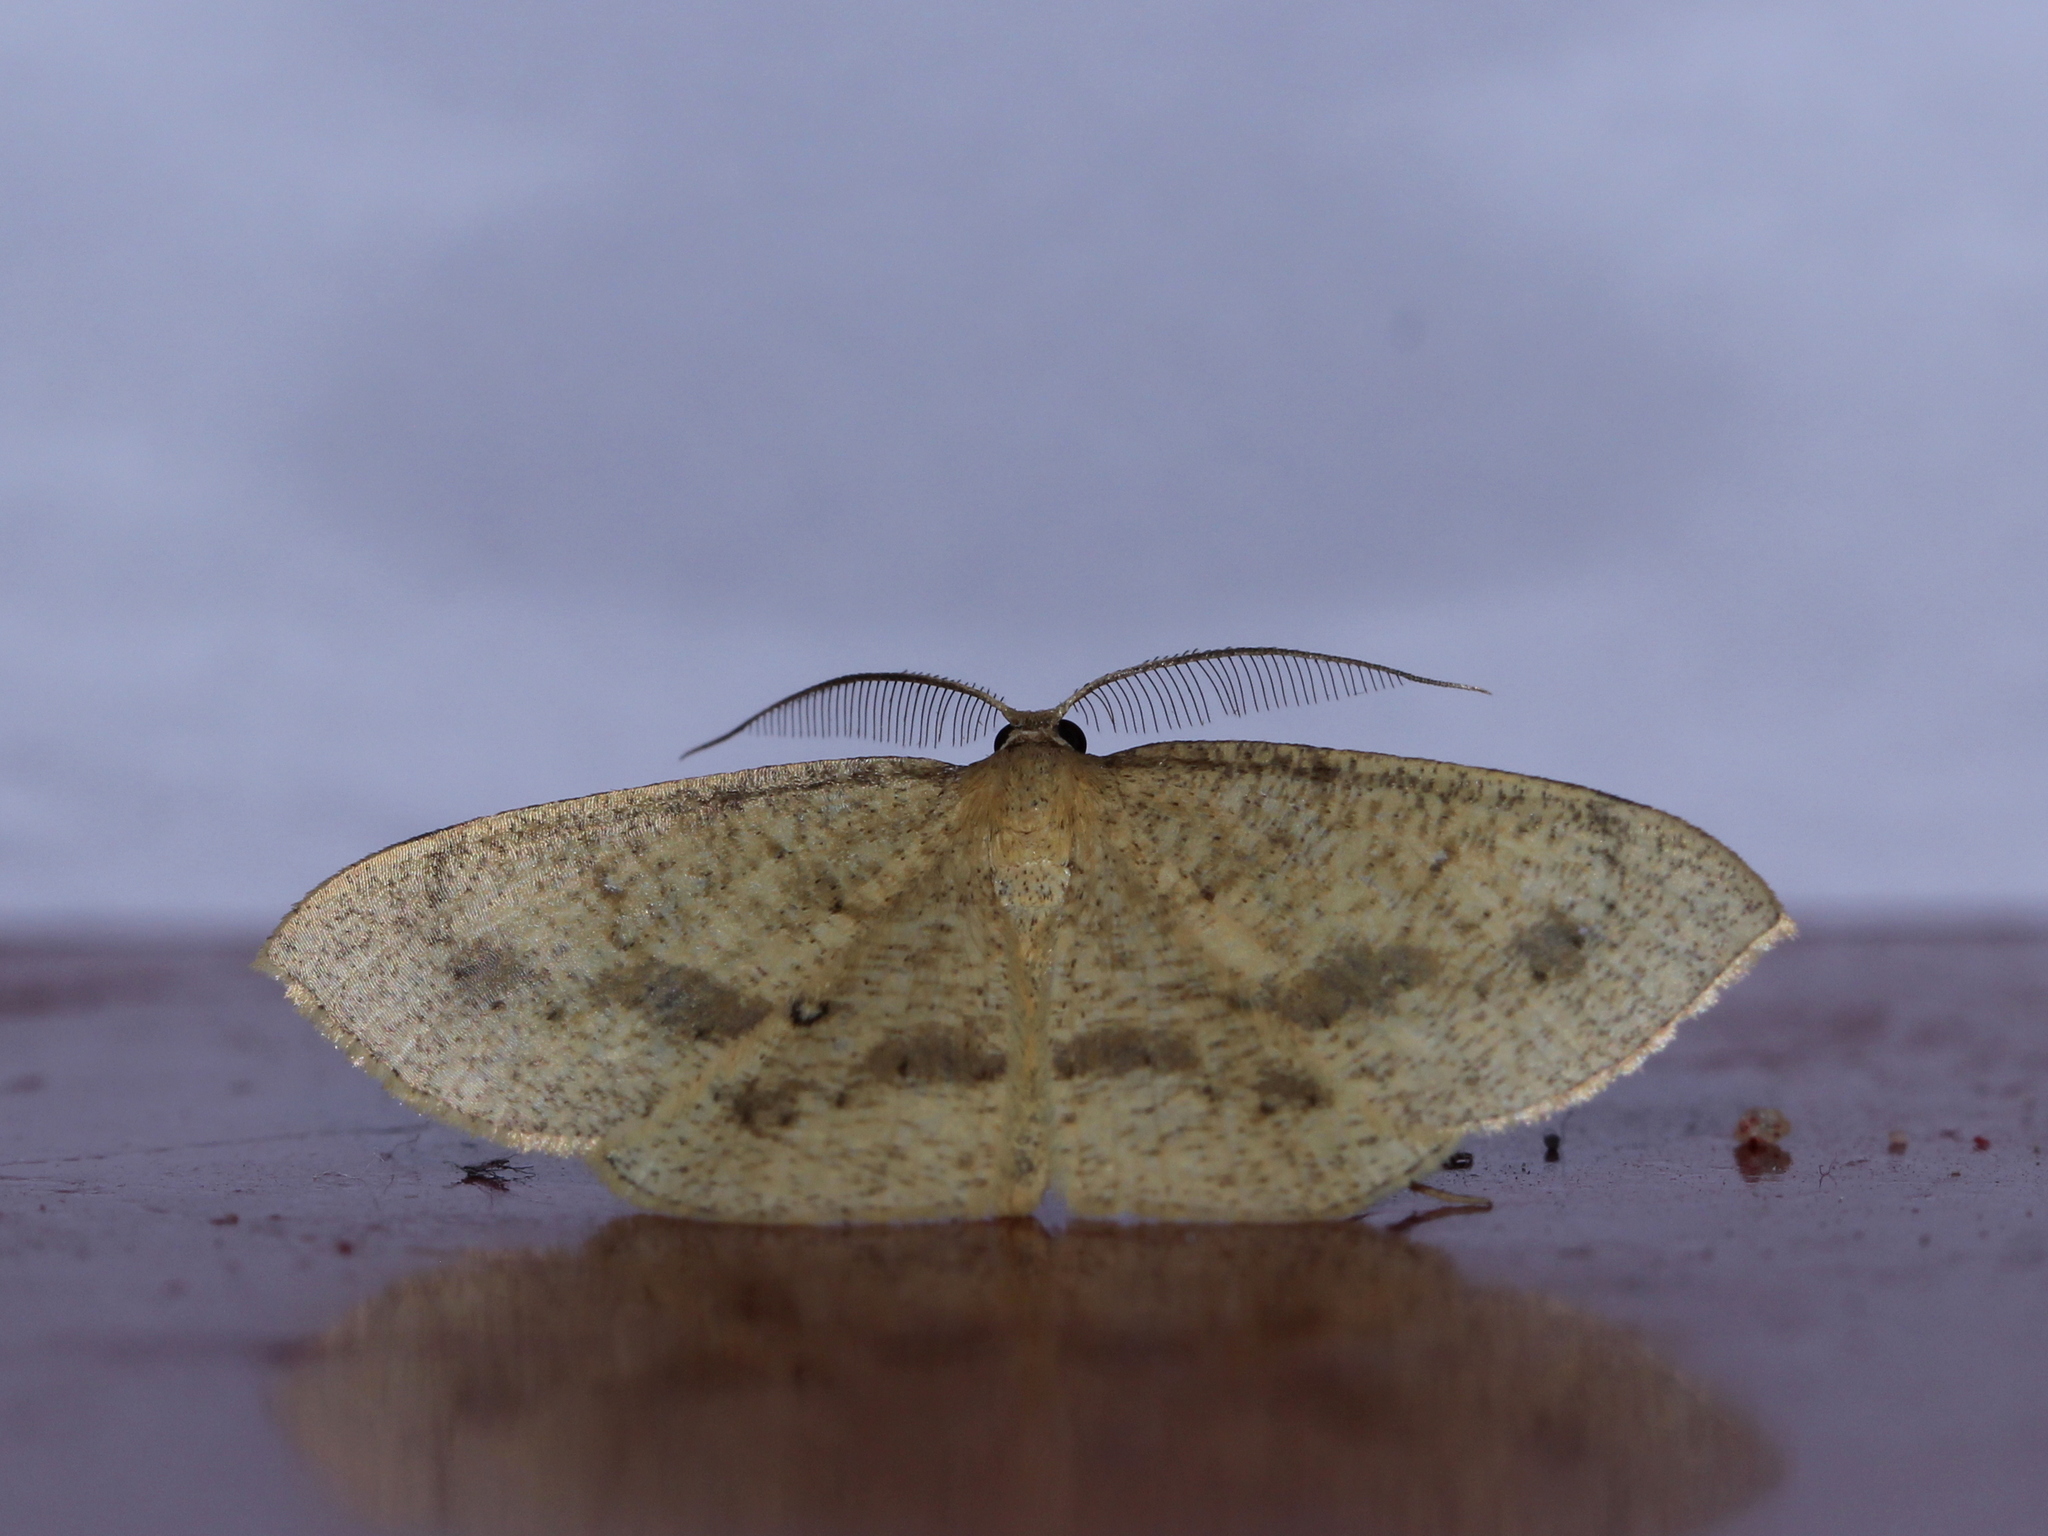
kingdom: Animalia
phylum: Arthropoda
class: Insecta
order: Lepidoptera
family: Geometridae
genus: Palaeaspilates
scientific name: Palaeaspilates Anisephyra ocularia
